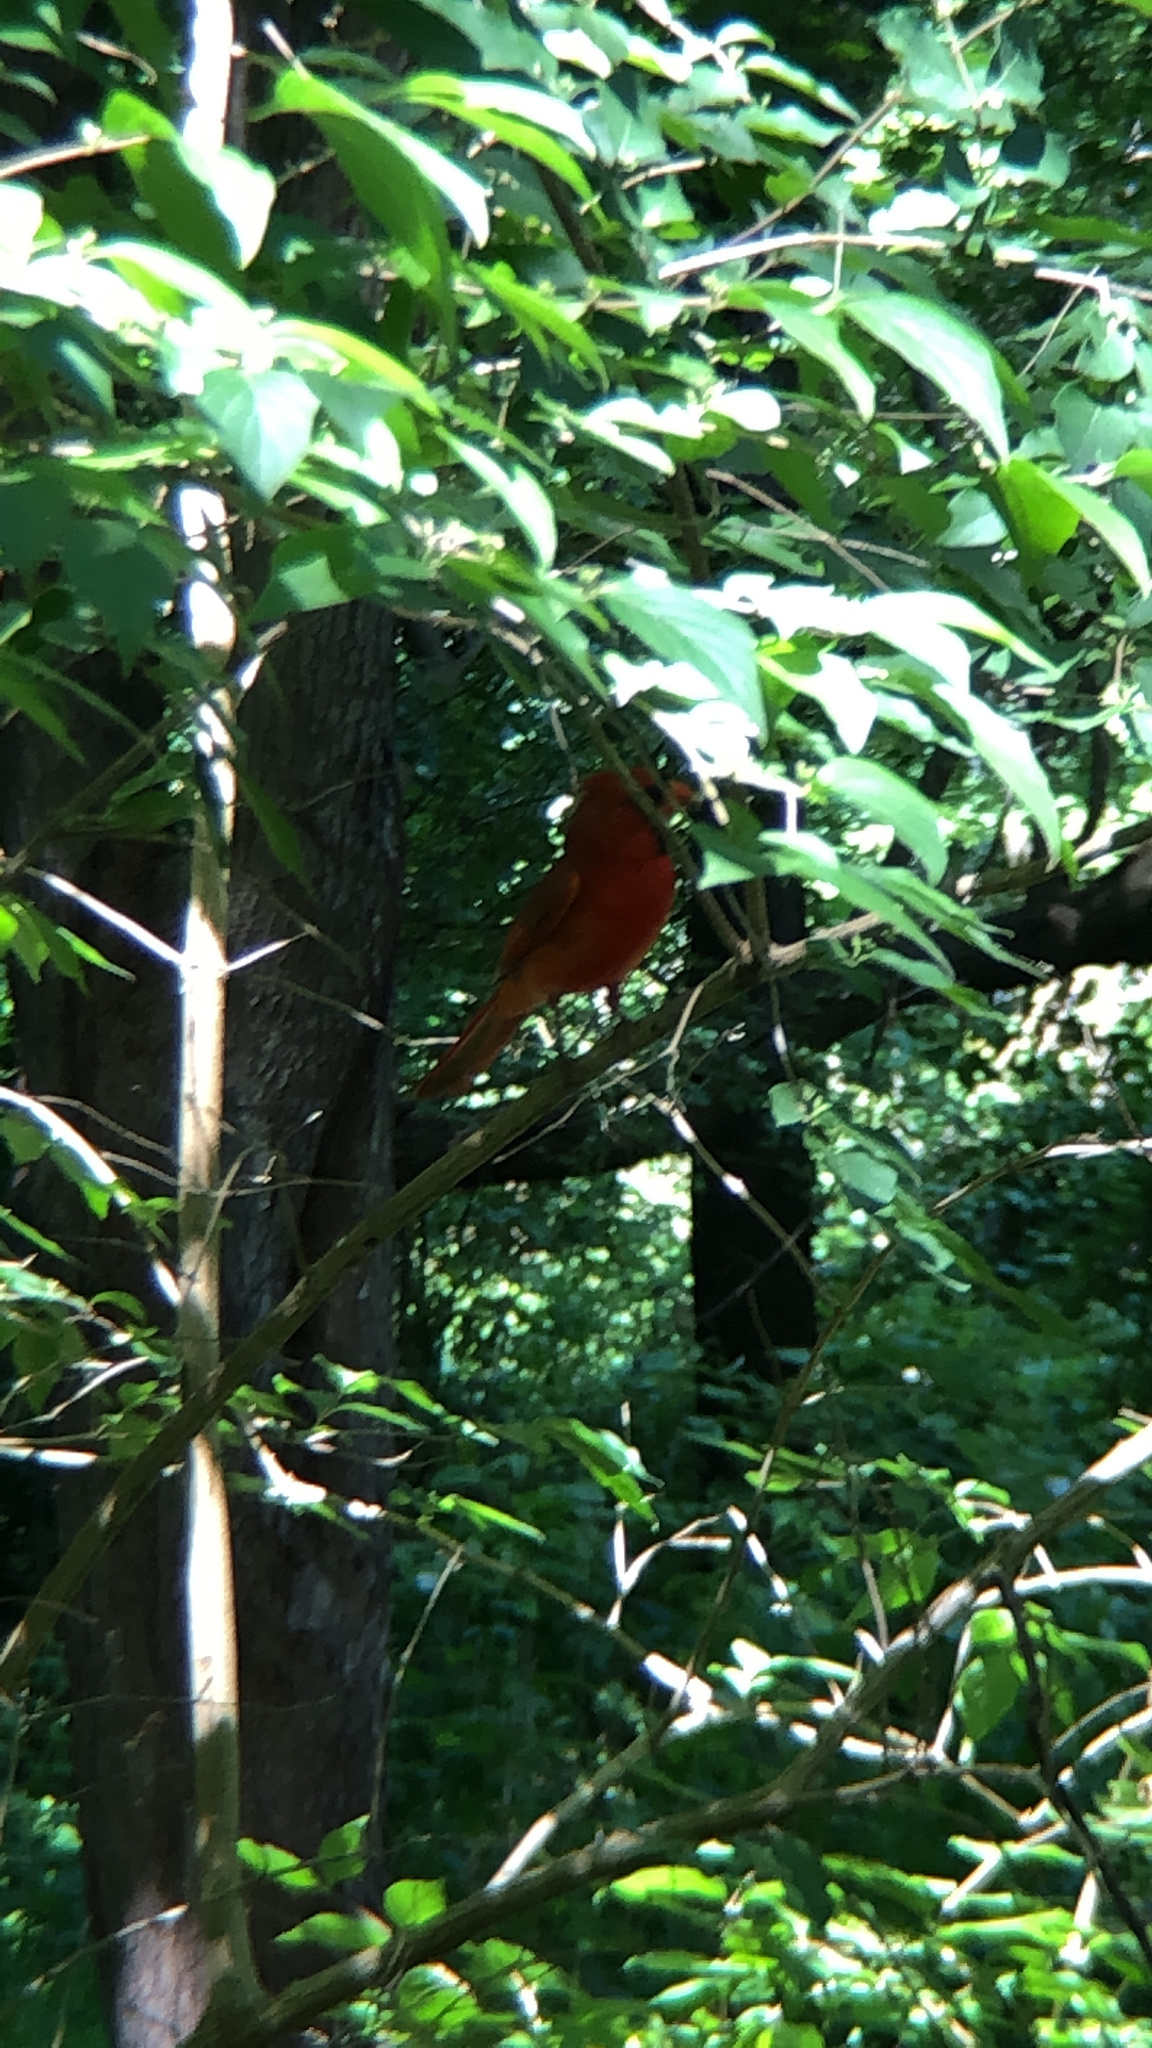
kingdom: Animalia
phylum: Chordata
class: Aves
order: Passeriformes
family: Cardinalidae
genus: Cardinalis
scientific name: Cardinalis cardinalis
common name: Northern cardinal
